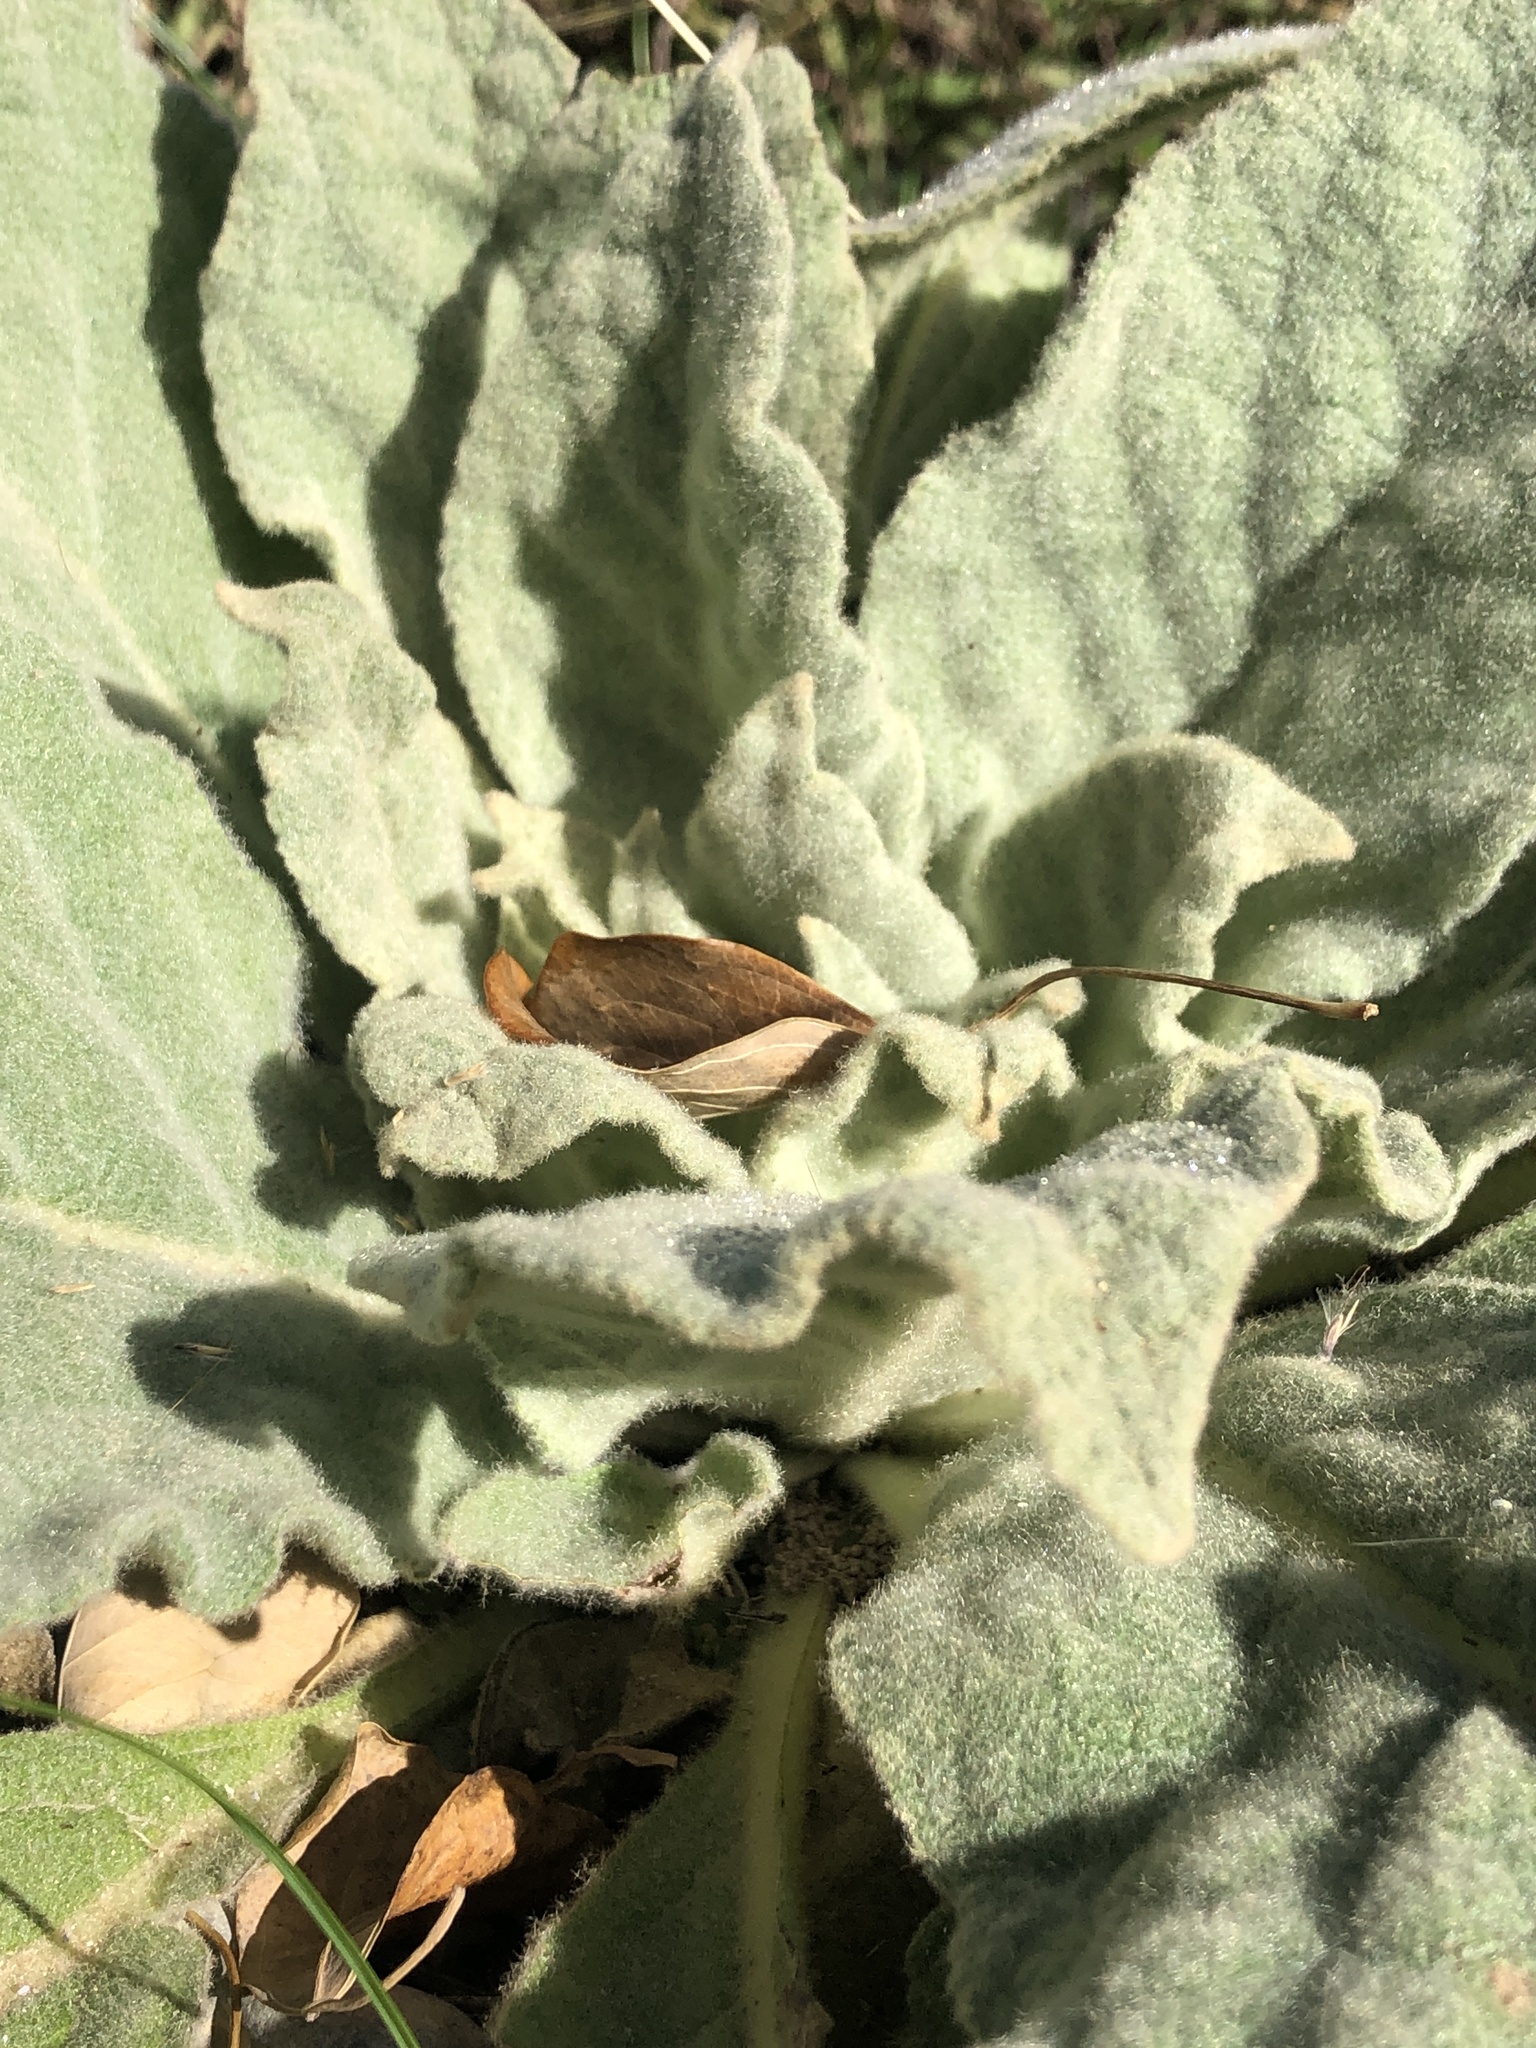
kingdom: Plantae
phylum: Tracheophyta
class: Magnoliopsida
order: Lamiales
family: Scrophulariaceae
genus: Verbascum
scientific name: Verbascum thapsus
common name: Common mullein
